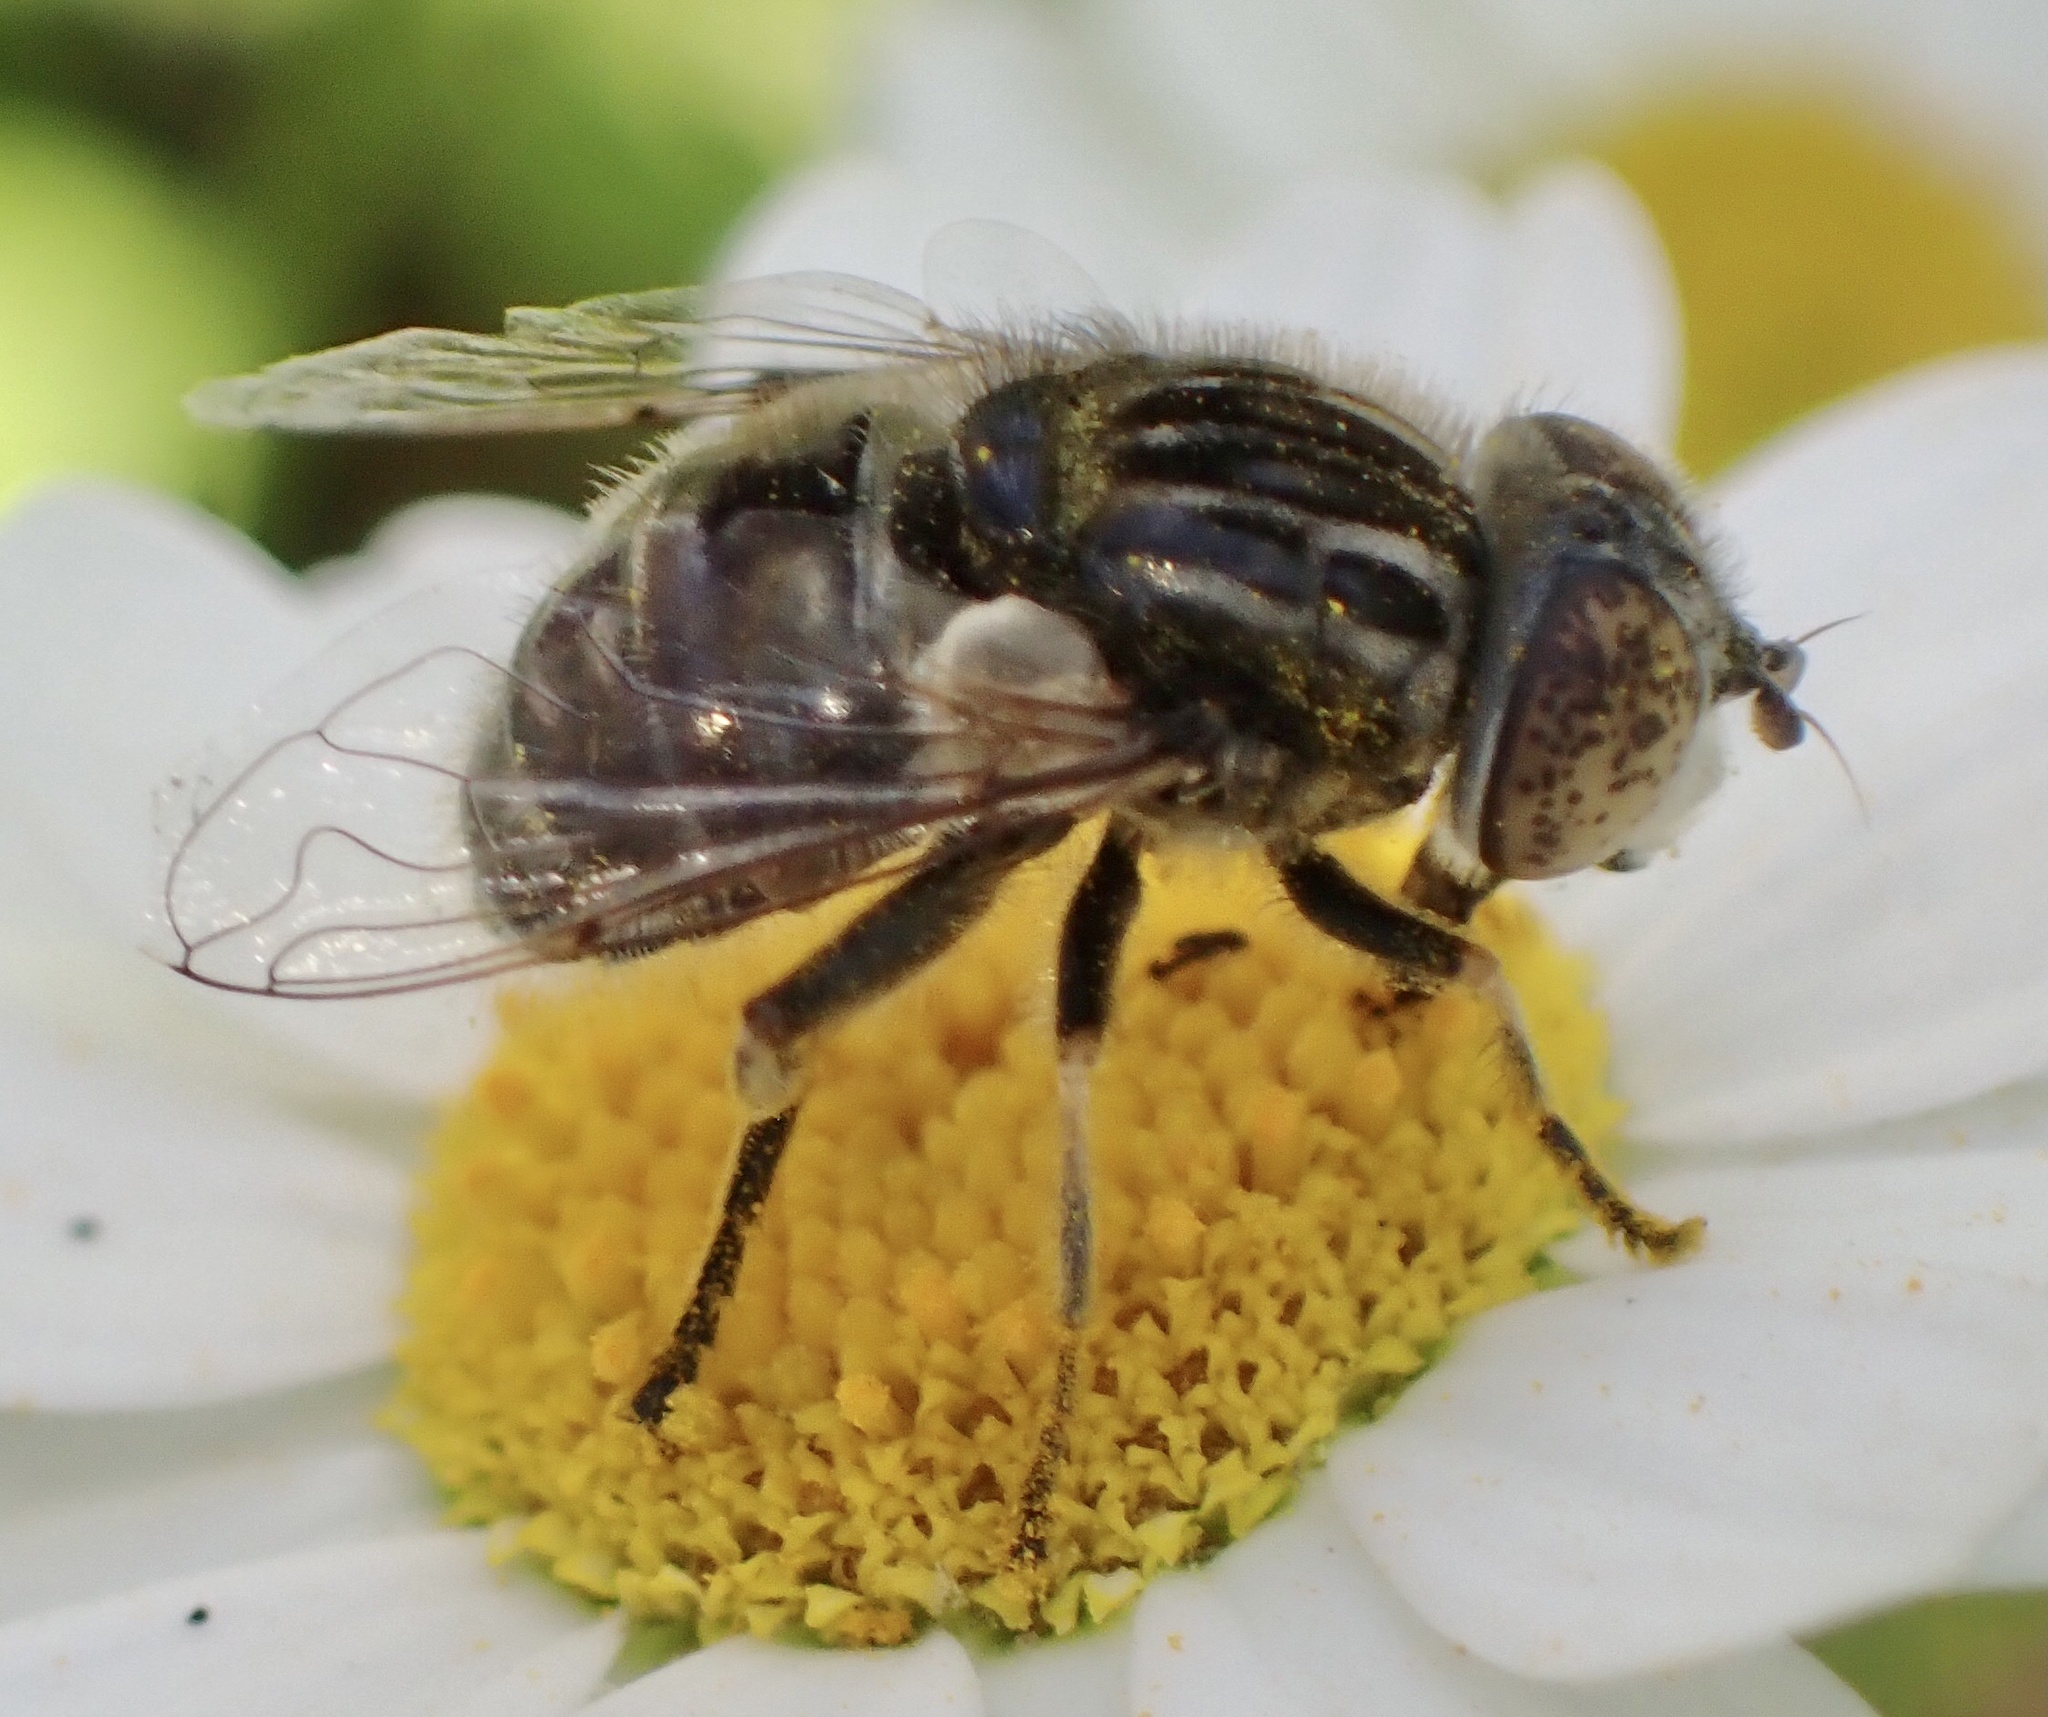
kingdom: Animalia
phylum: Arthropoda
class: Insecta
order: Diptera
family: Syrphidae
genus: Eristalinus
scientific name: Eristalinus sepulchralis
